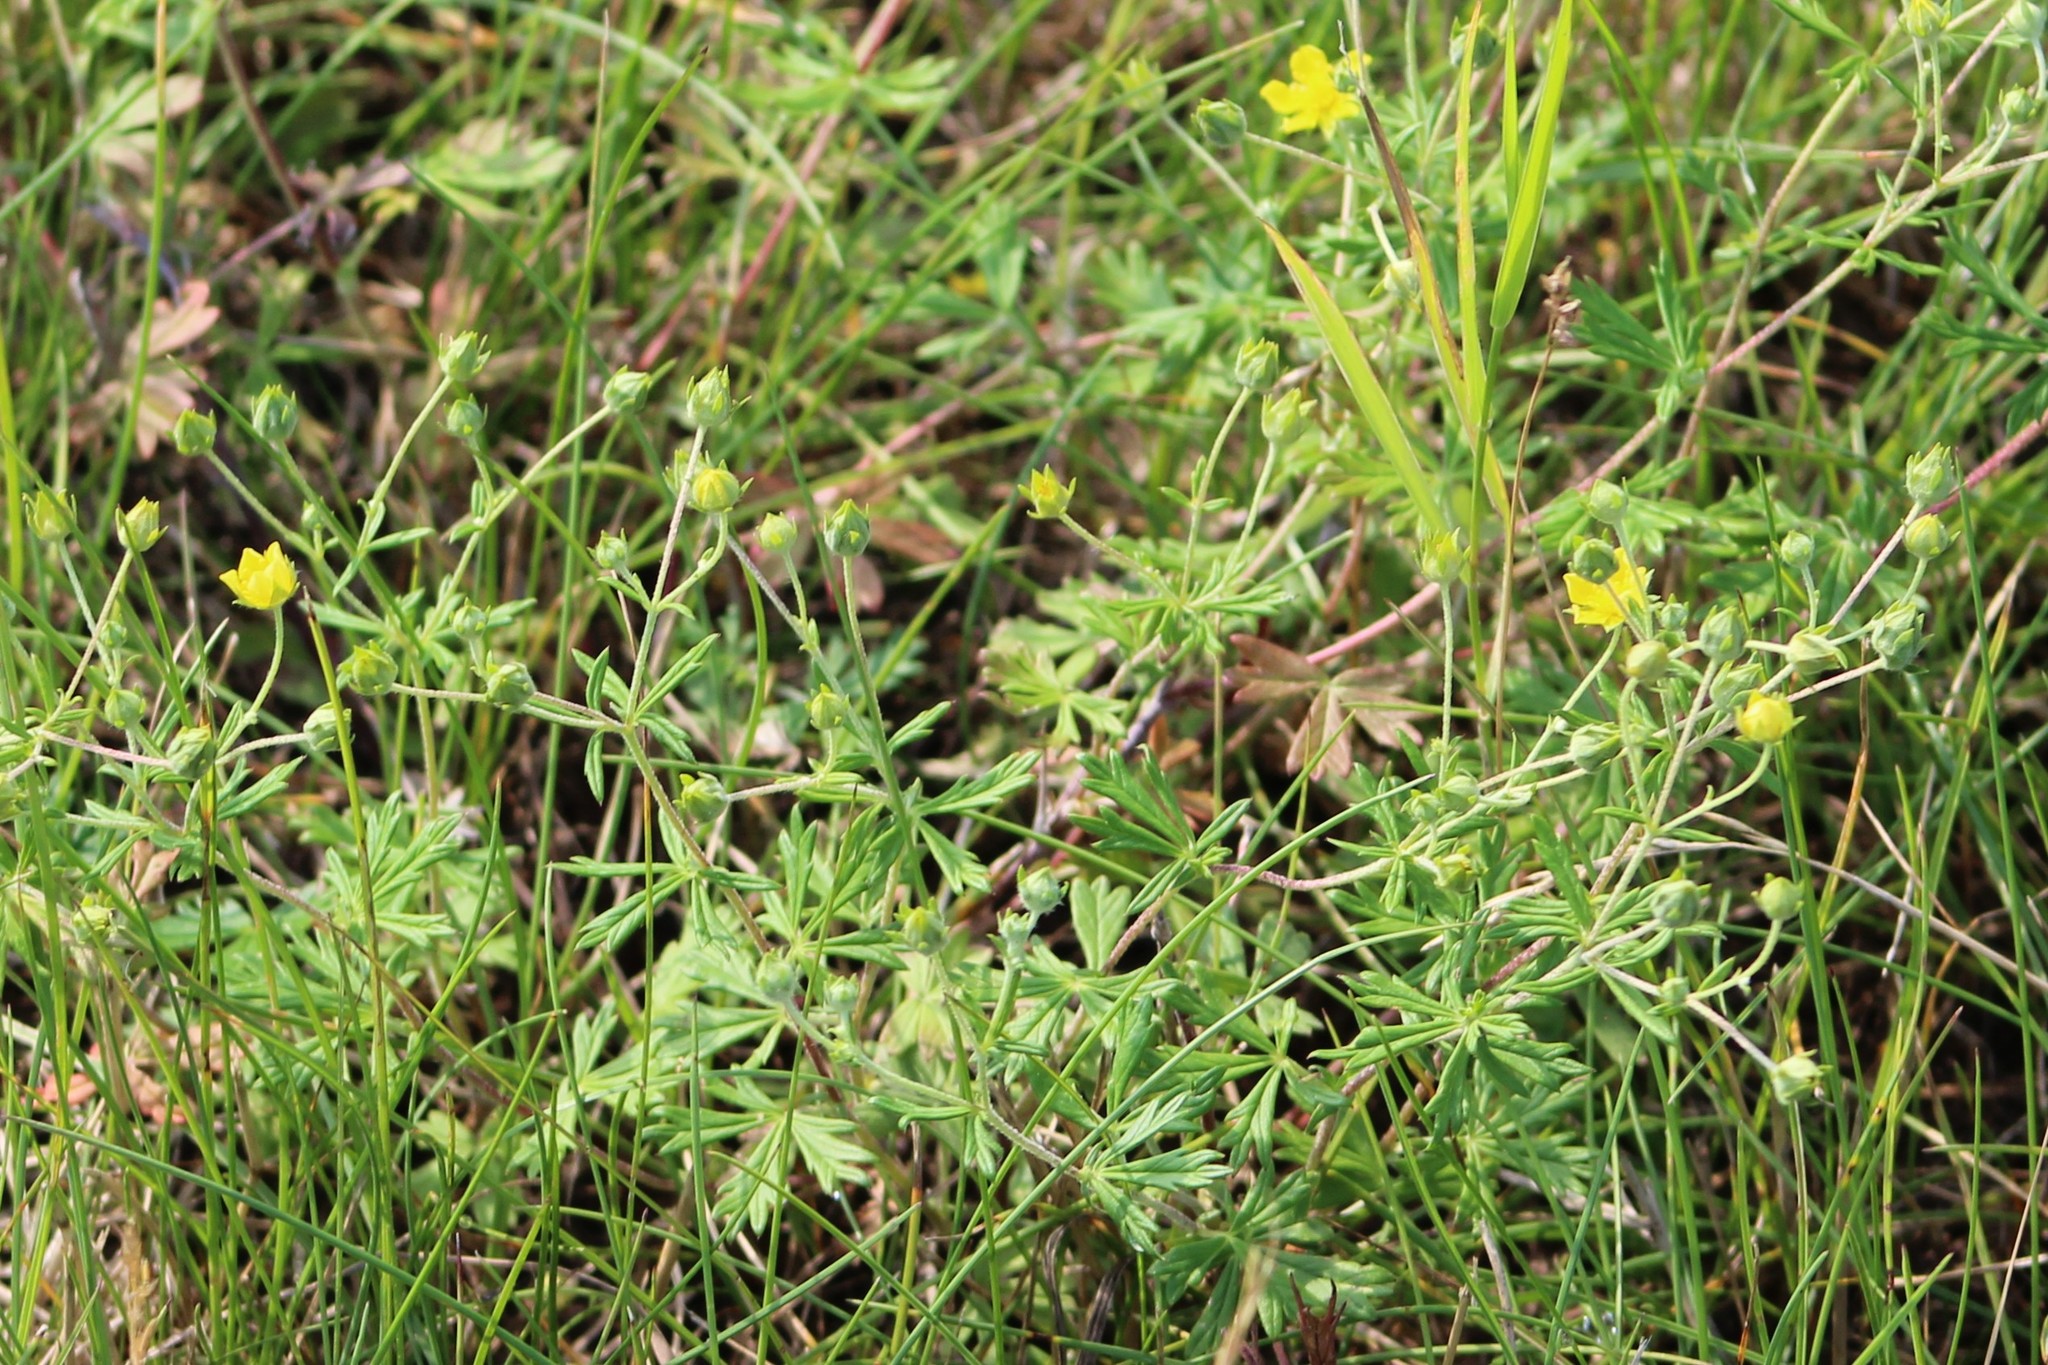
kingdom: Plantae
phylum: Tracheophyta
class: Magnoliopsida
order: Rosales
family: Rosaceae
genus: Potentilla
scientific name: Potentilla argentea
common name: Hoary cinquefoil
